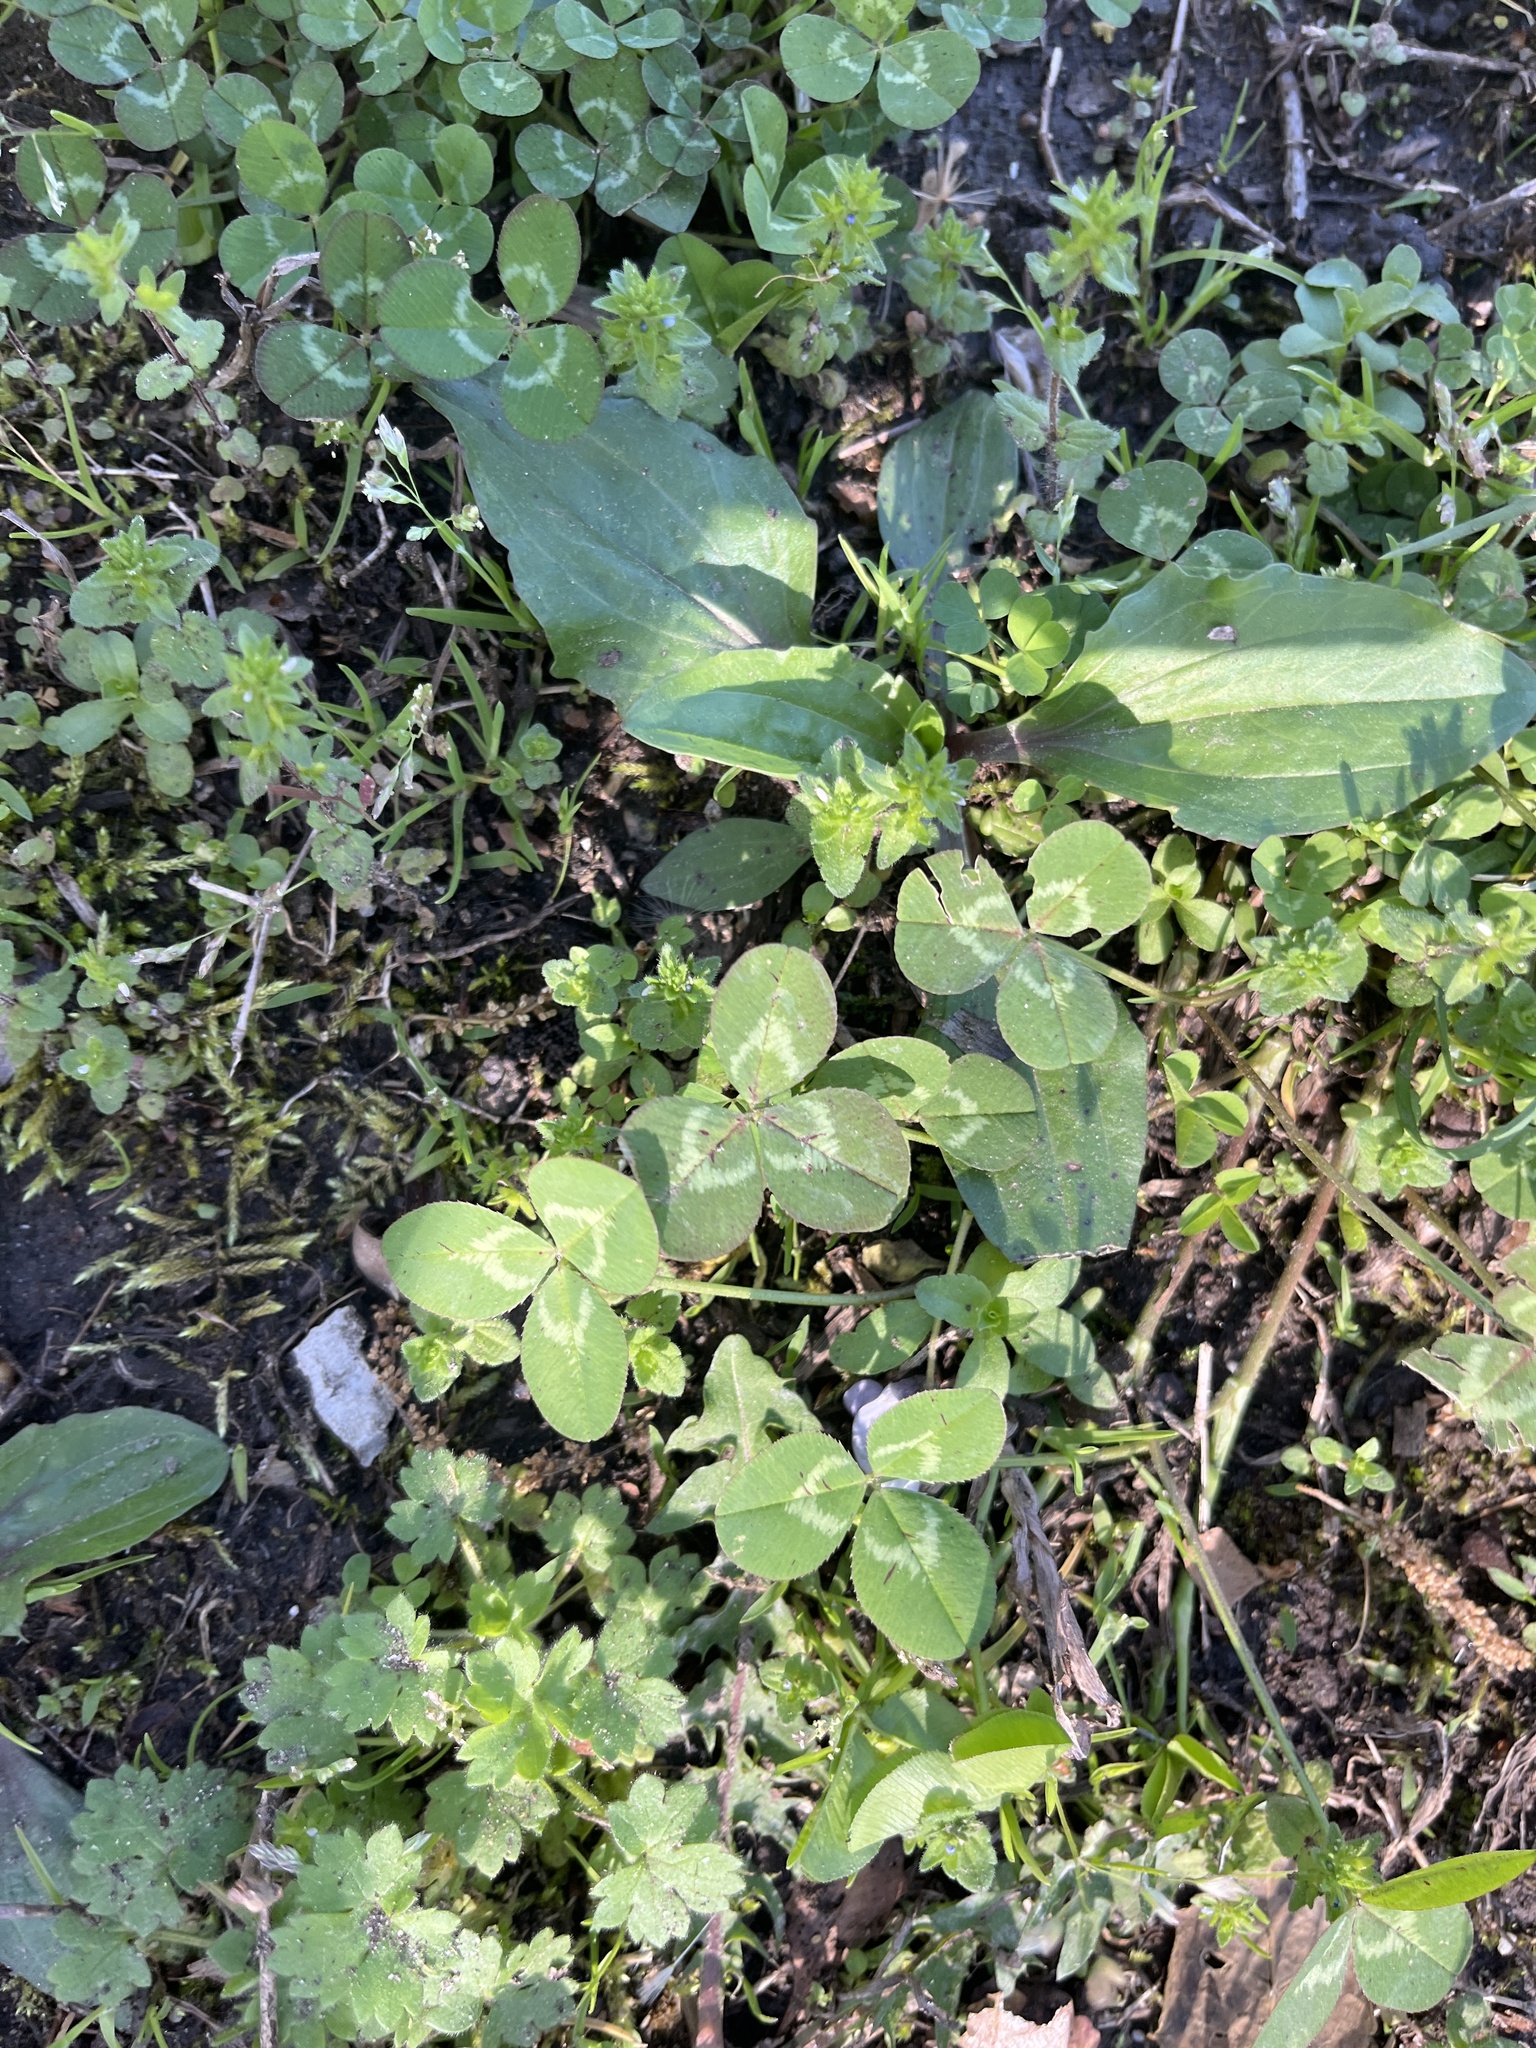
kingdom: Plantae
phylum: Tracheophyta
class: Magnoliopsida
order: Fabales
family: Fabaceae
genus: Trifolium
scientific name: Trifolium repens
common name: White clover
